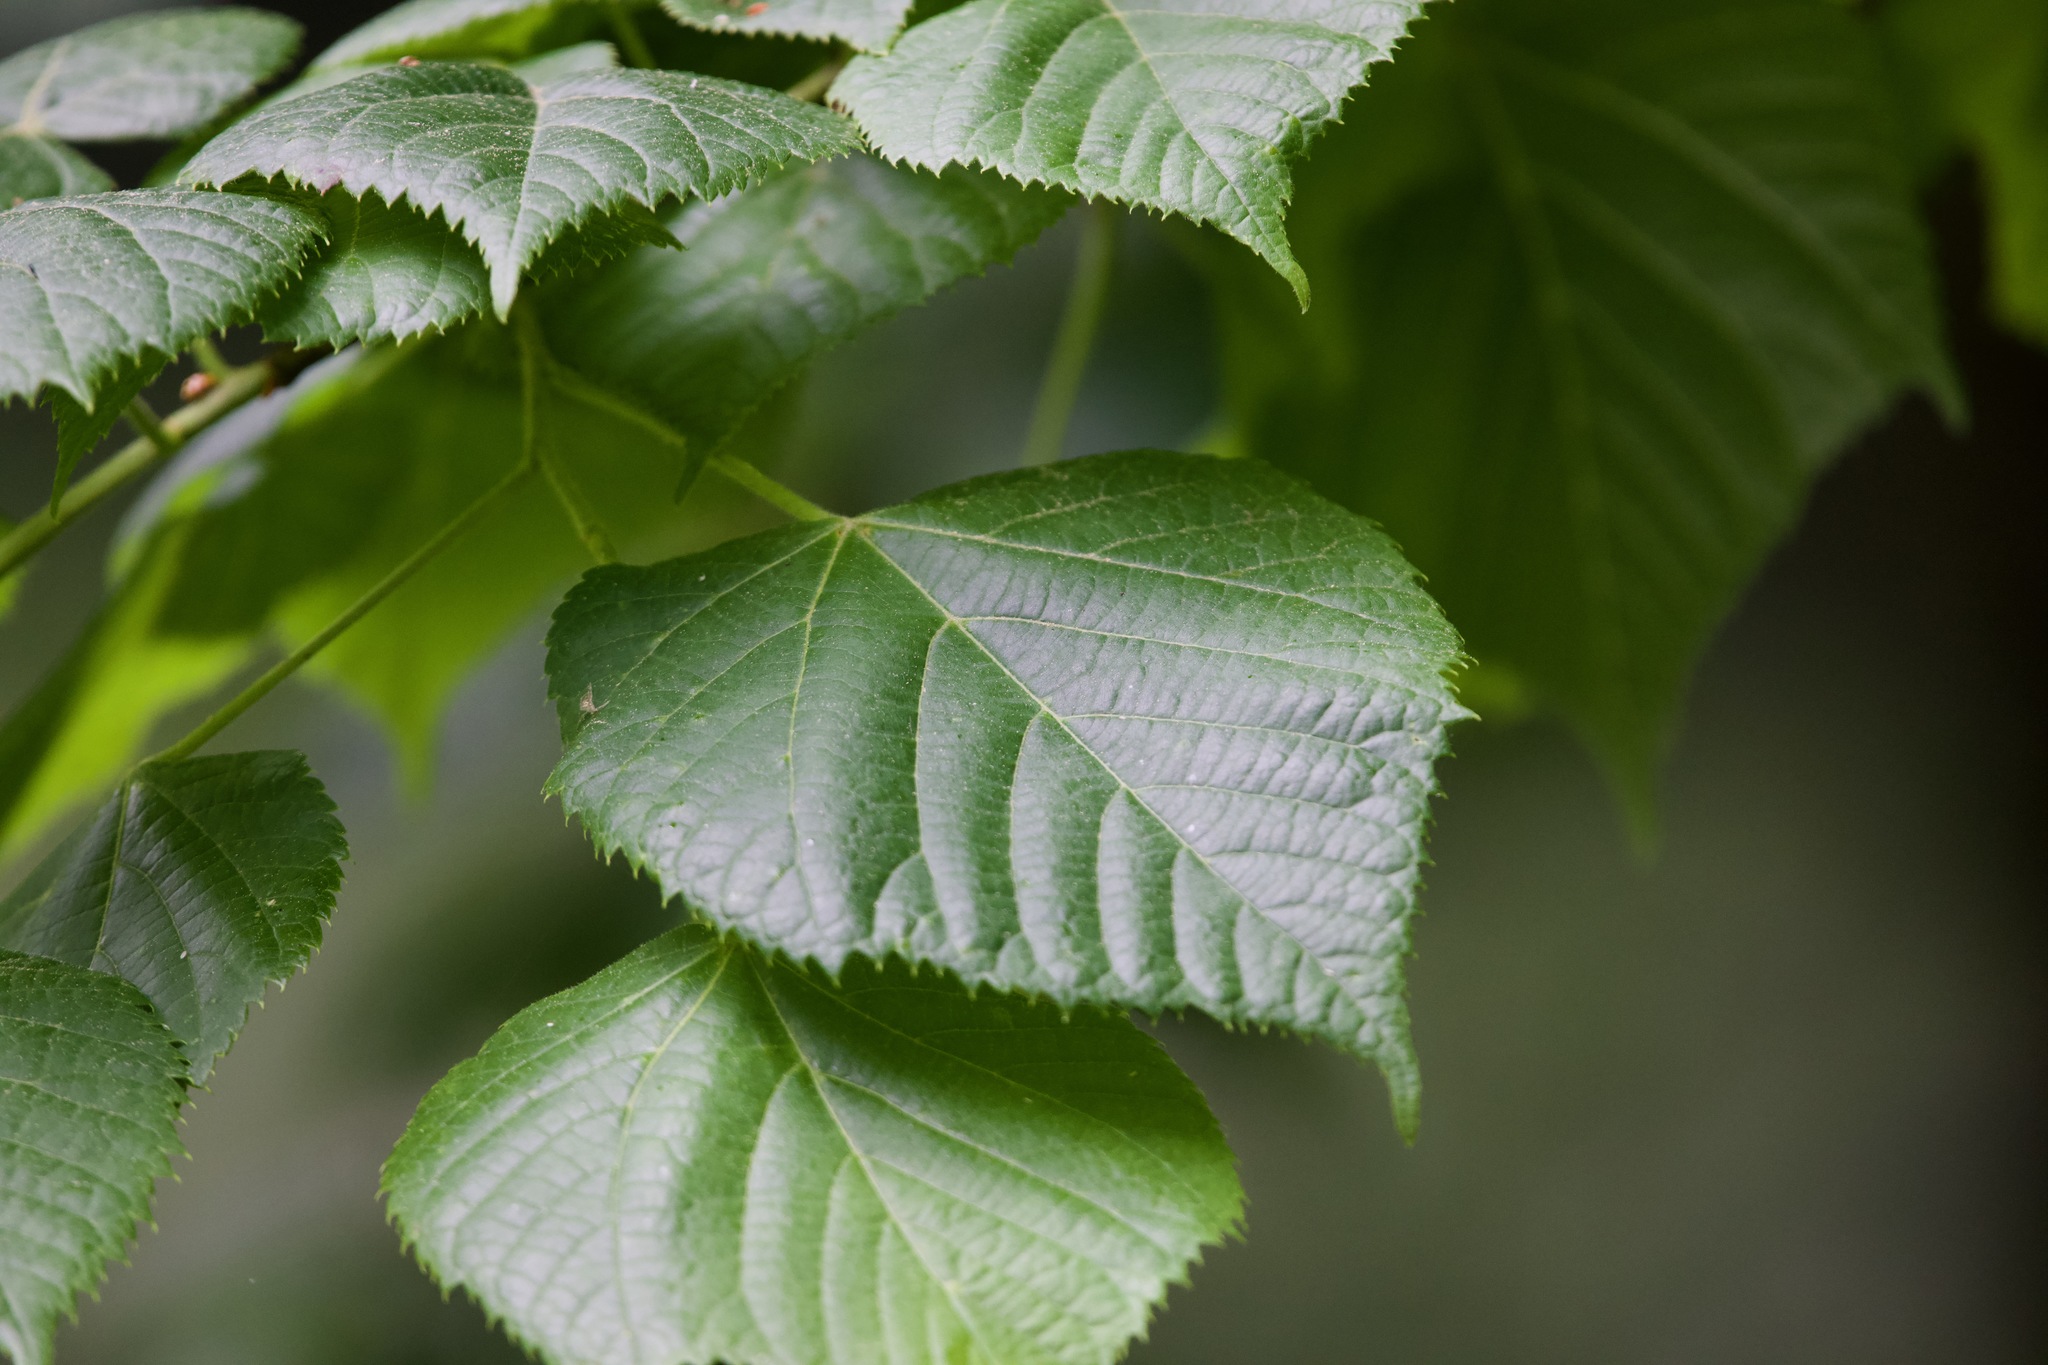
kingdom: Plantae
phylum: Tracheophyta
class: Magnoliopsida
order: Malvales
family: Malvaceae
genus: Tilia
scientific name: Tilia platyphyllos
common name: Large-leaved lime
